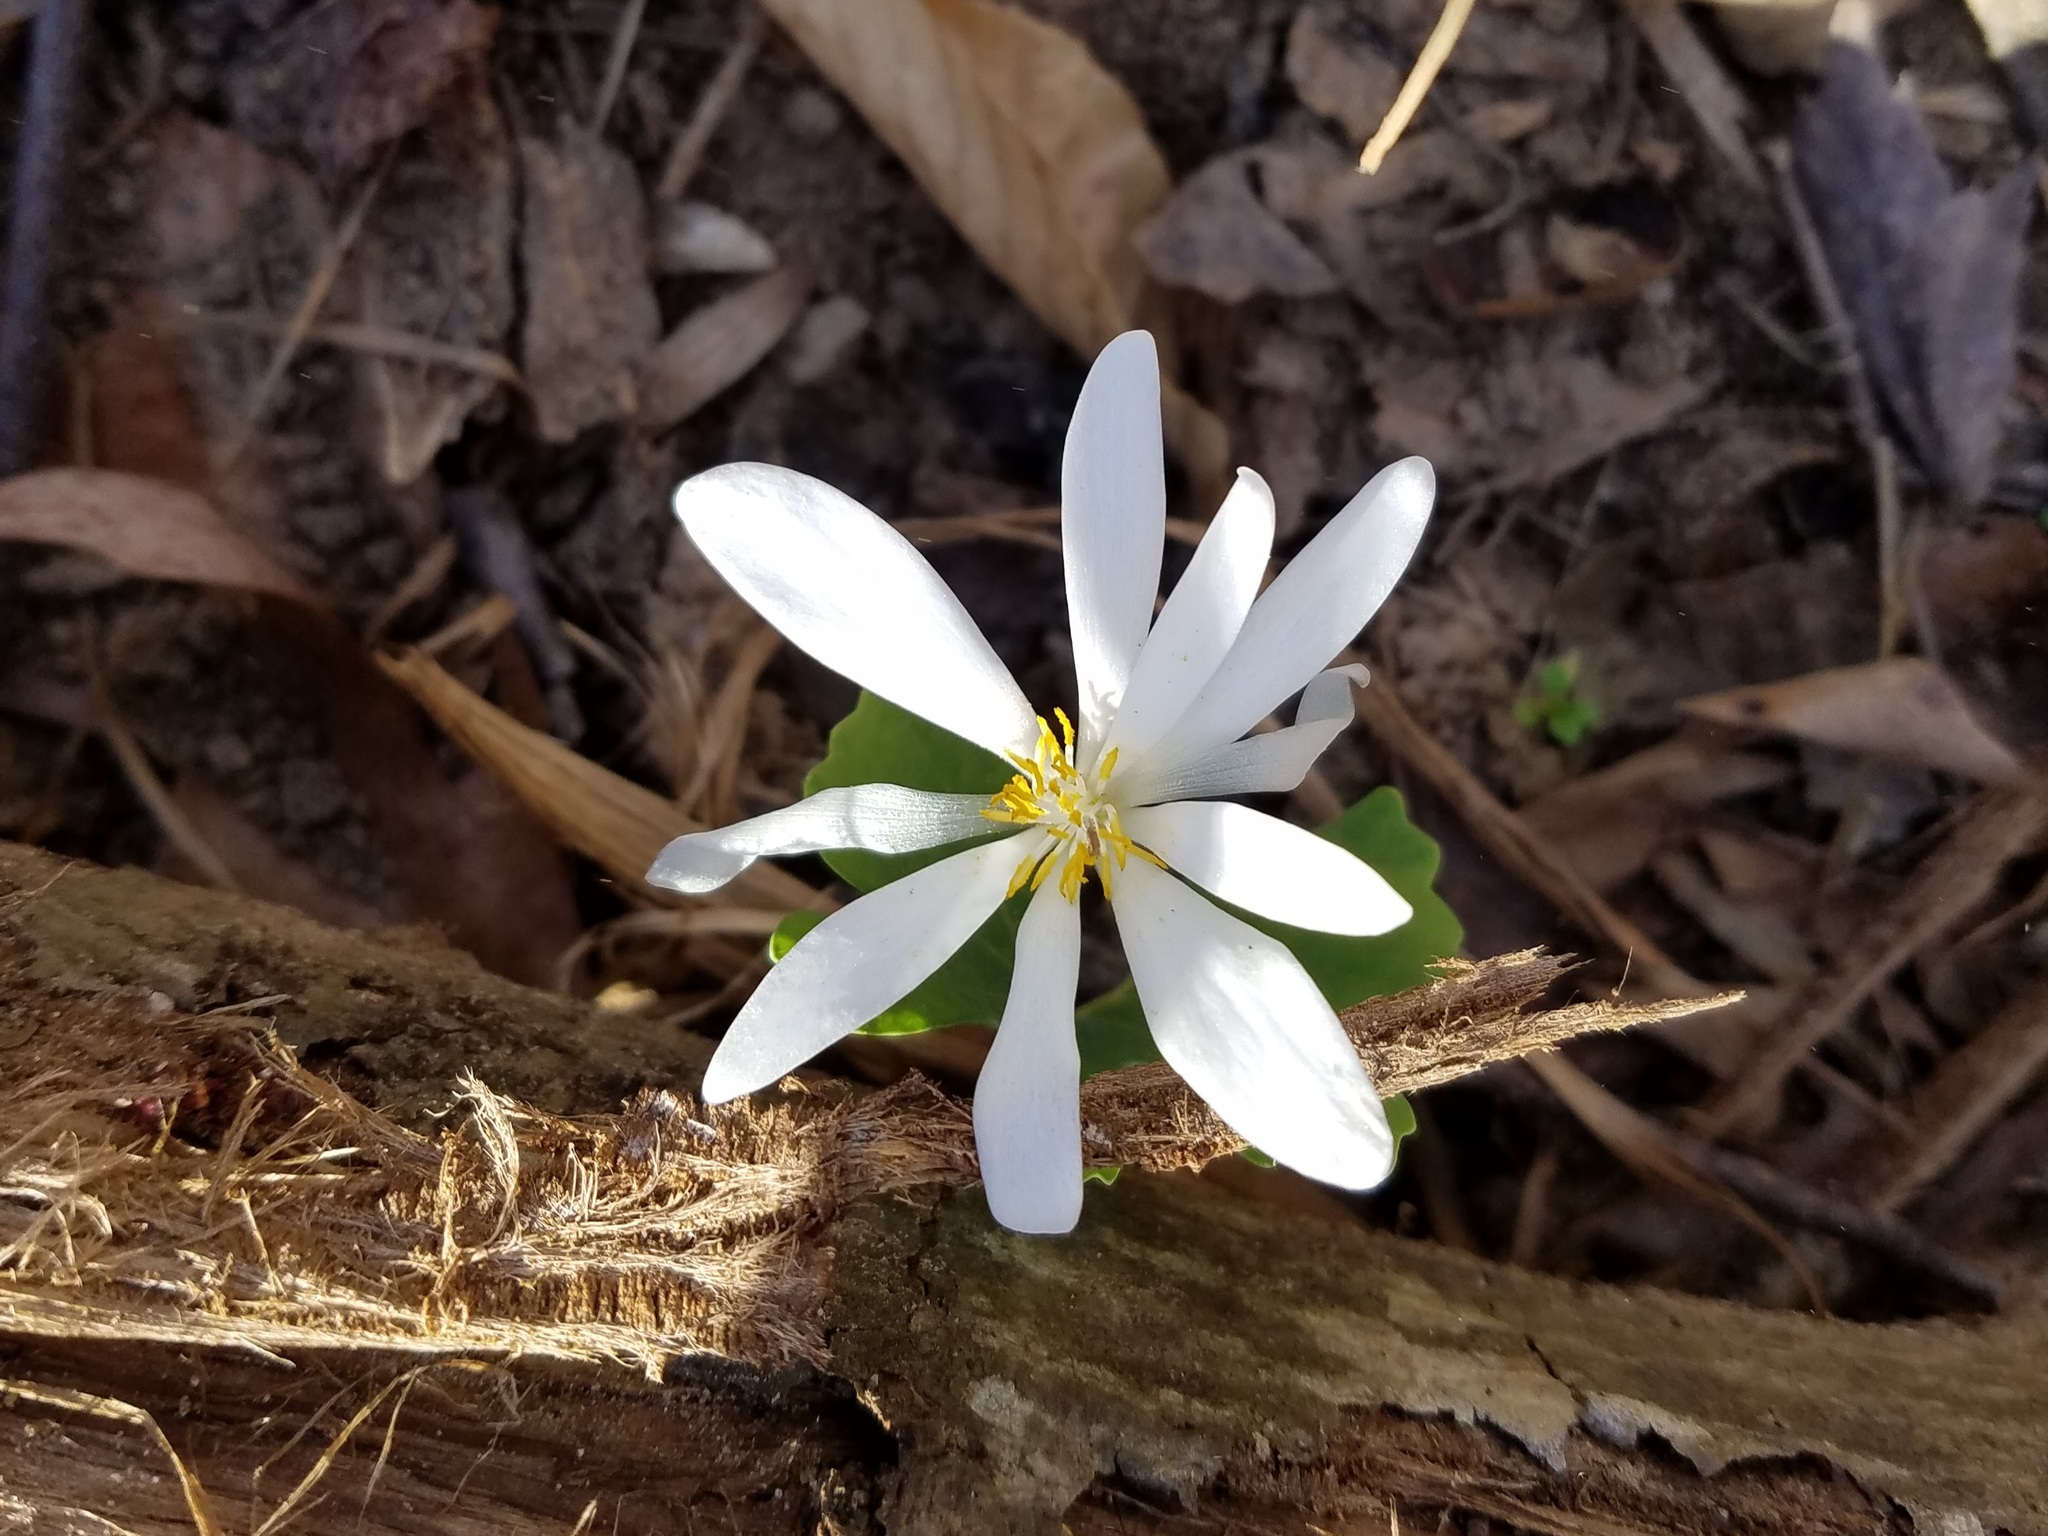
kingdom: Plantae
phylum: Tracheophyta
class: Magnoliopsida
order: Ranunculales
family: Papaveraceae
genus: Sanguinaria
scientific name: Sanguinaria canadensis
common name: Bloodroot
